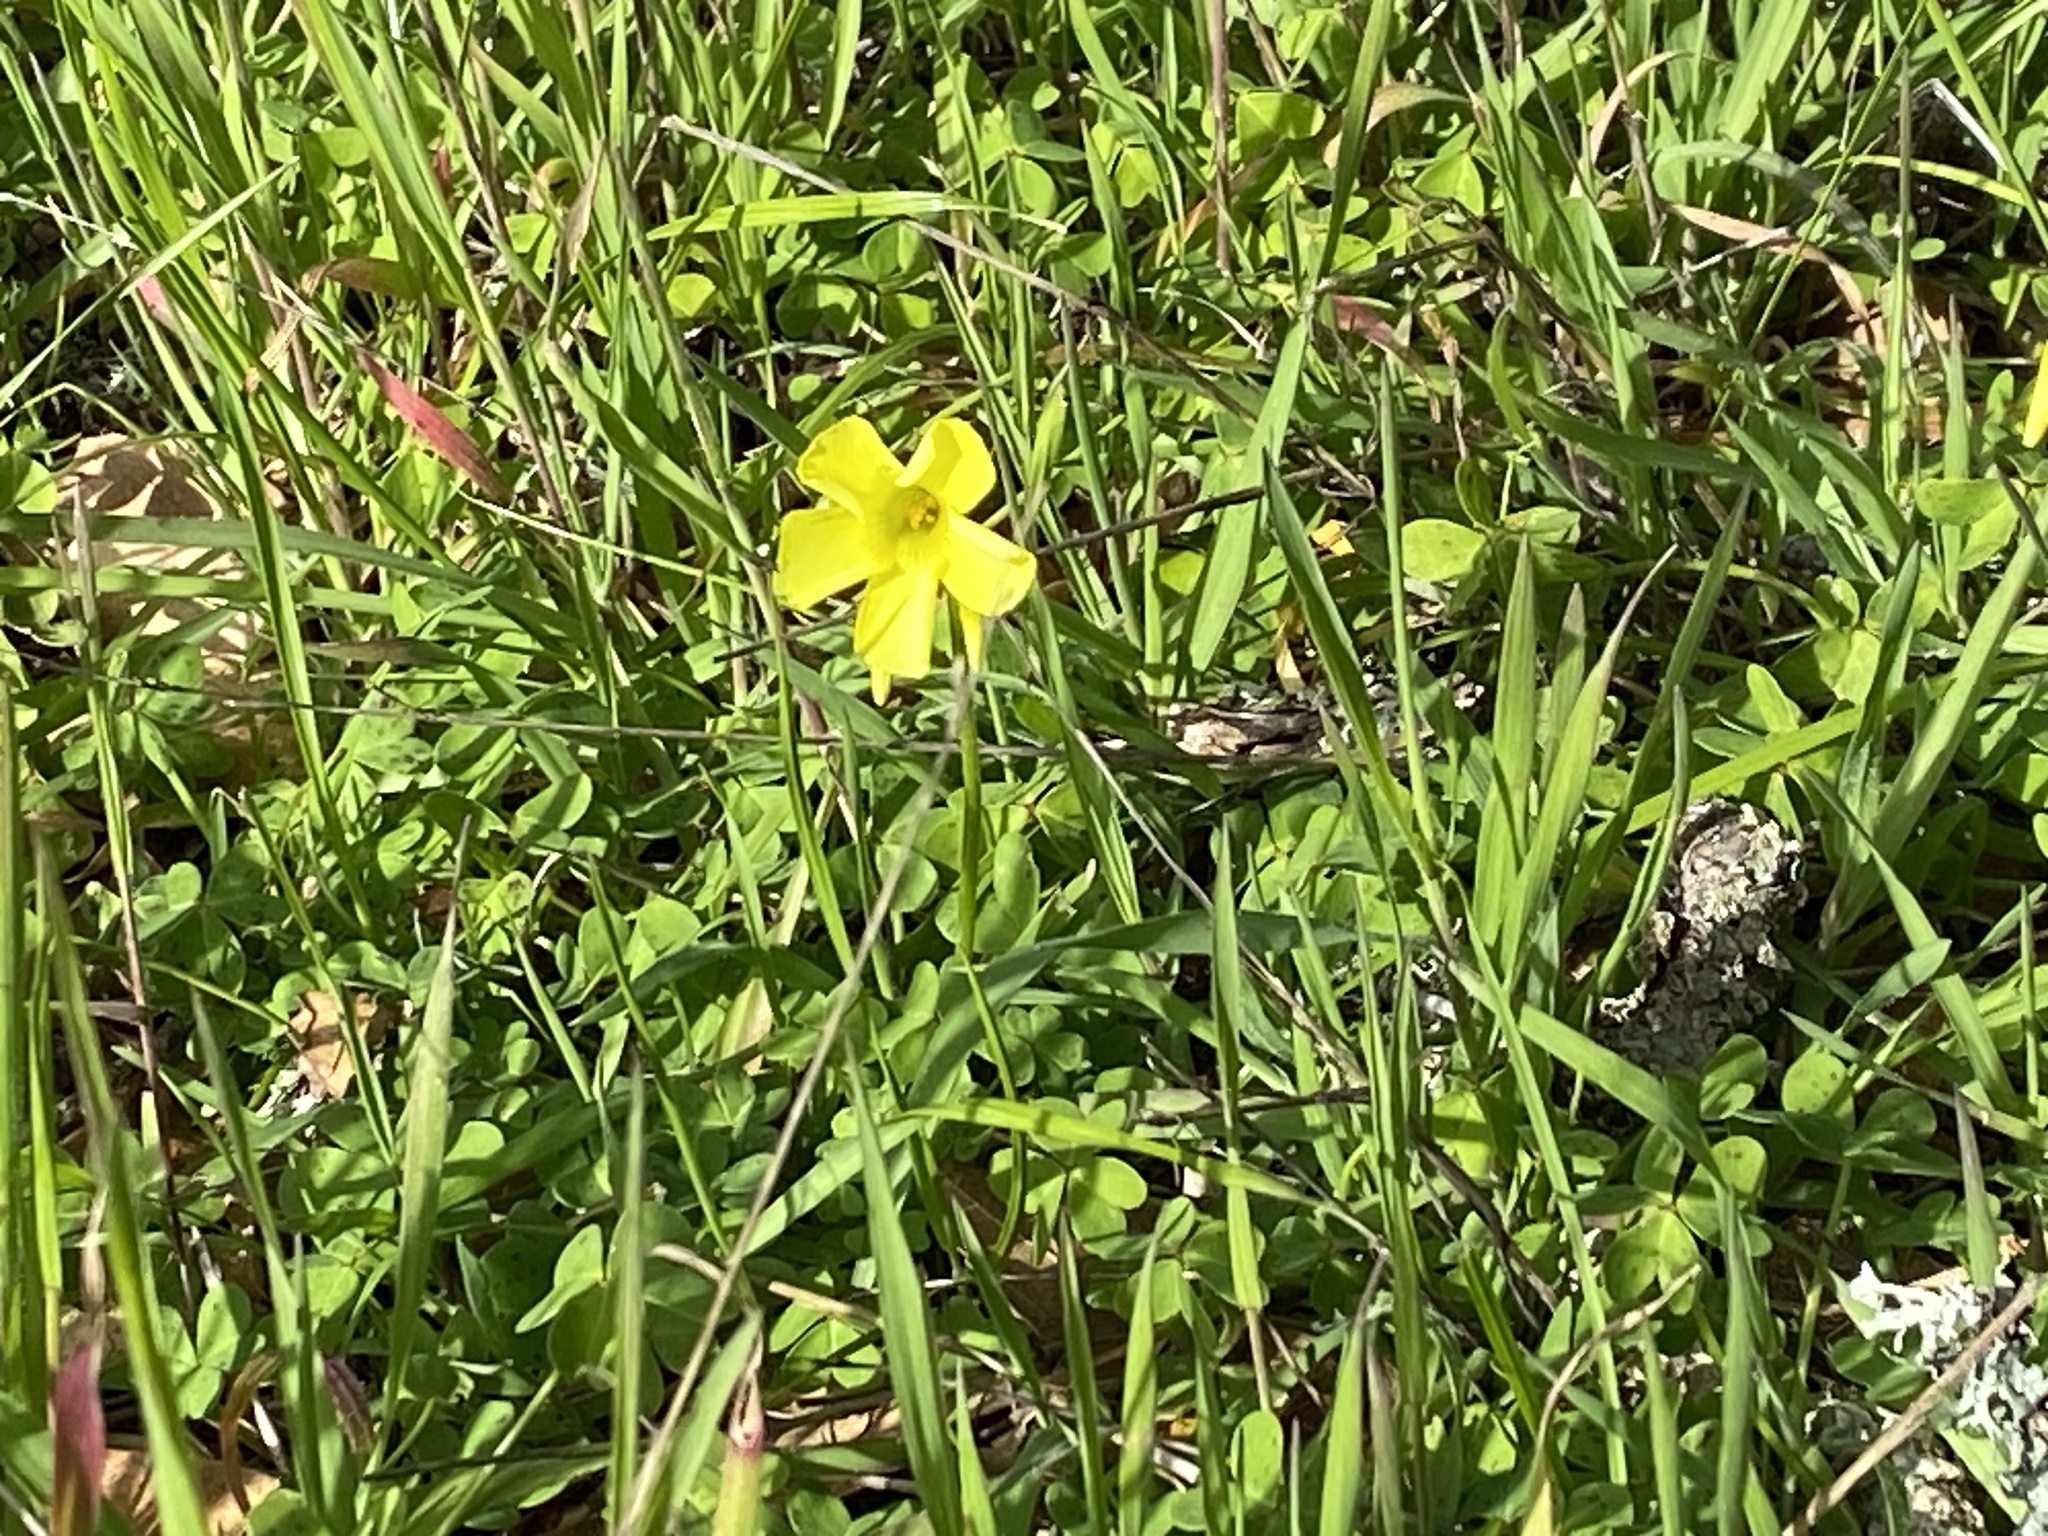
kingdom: Plantae
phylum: Tracheophyta
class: Magnoliopsida
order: Oxalidales
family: Oxalidaceae
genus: Oxalis
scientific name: Oxalis pes-caprae
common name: Bermuda-buttercup
